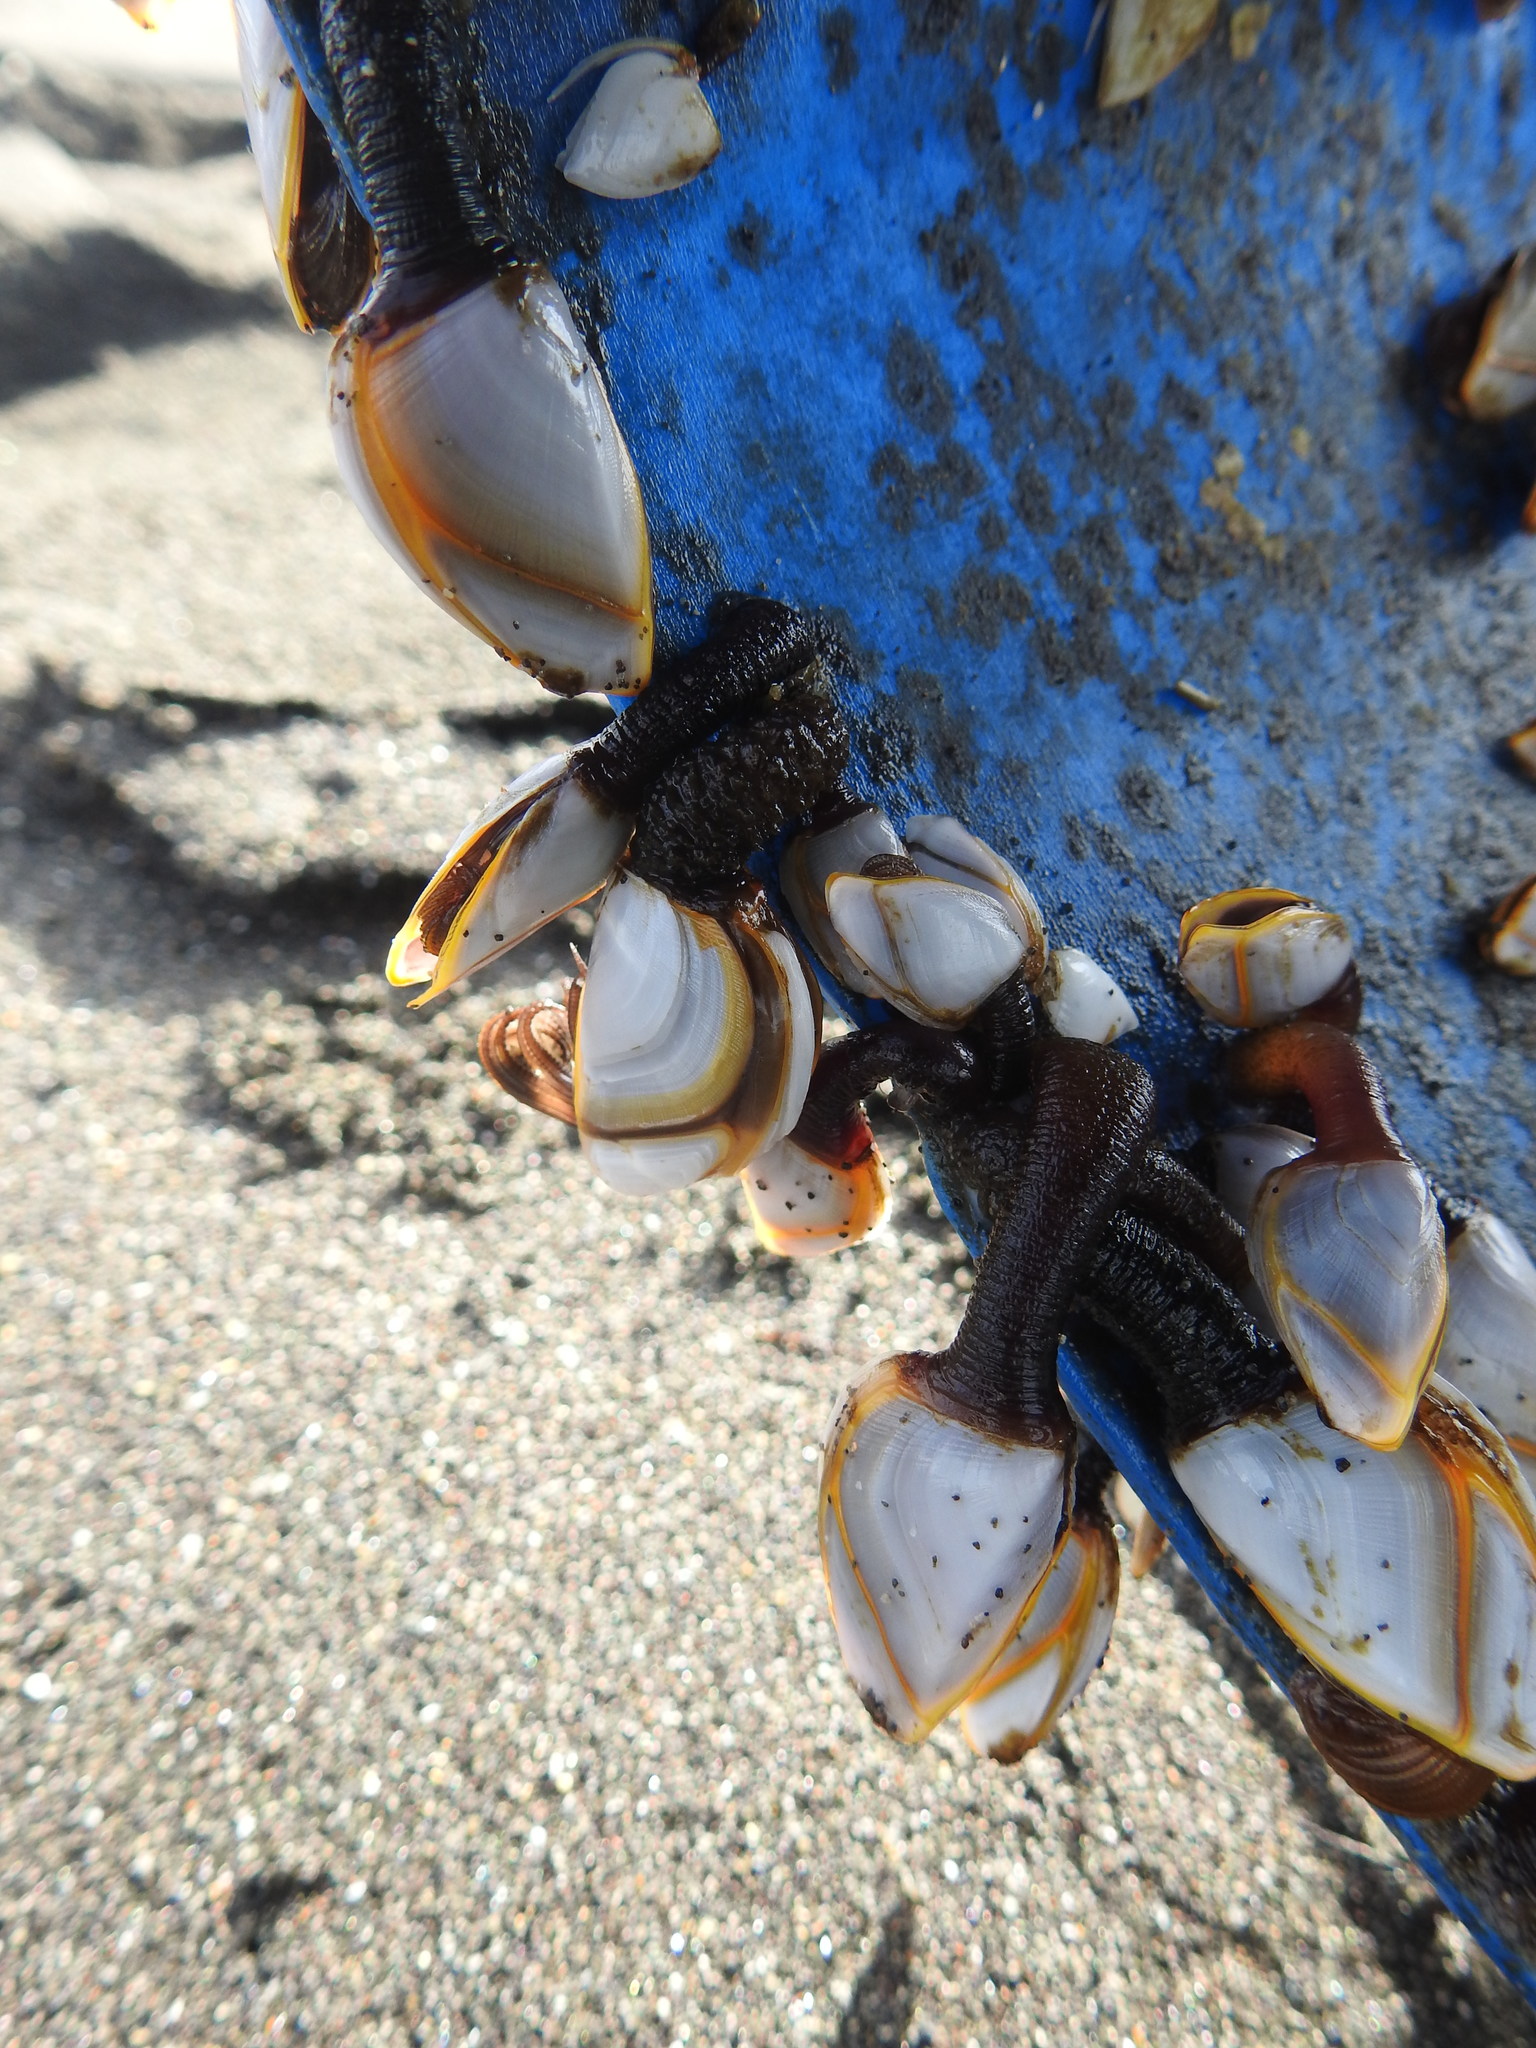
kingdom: Animalia
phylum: Arthropoda
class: Maxillopoda
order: Pedunculata
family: Lepadidae
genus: Lepas
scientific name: Lepas anatifera
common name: Common goose barnacle
